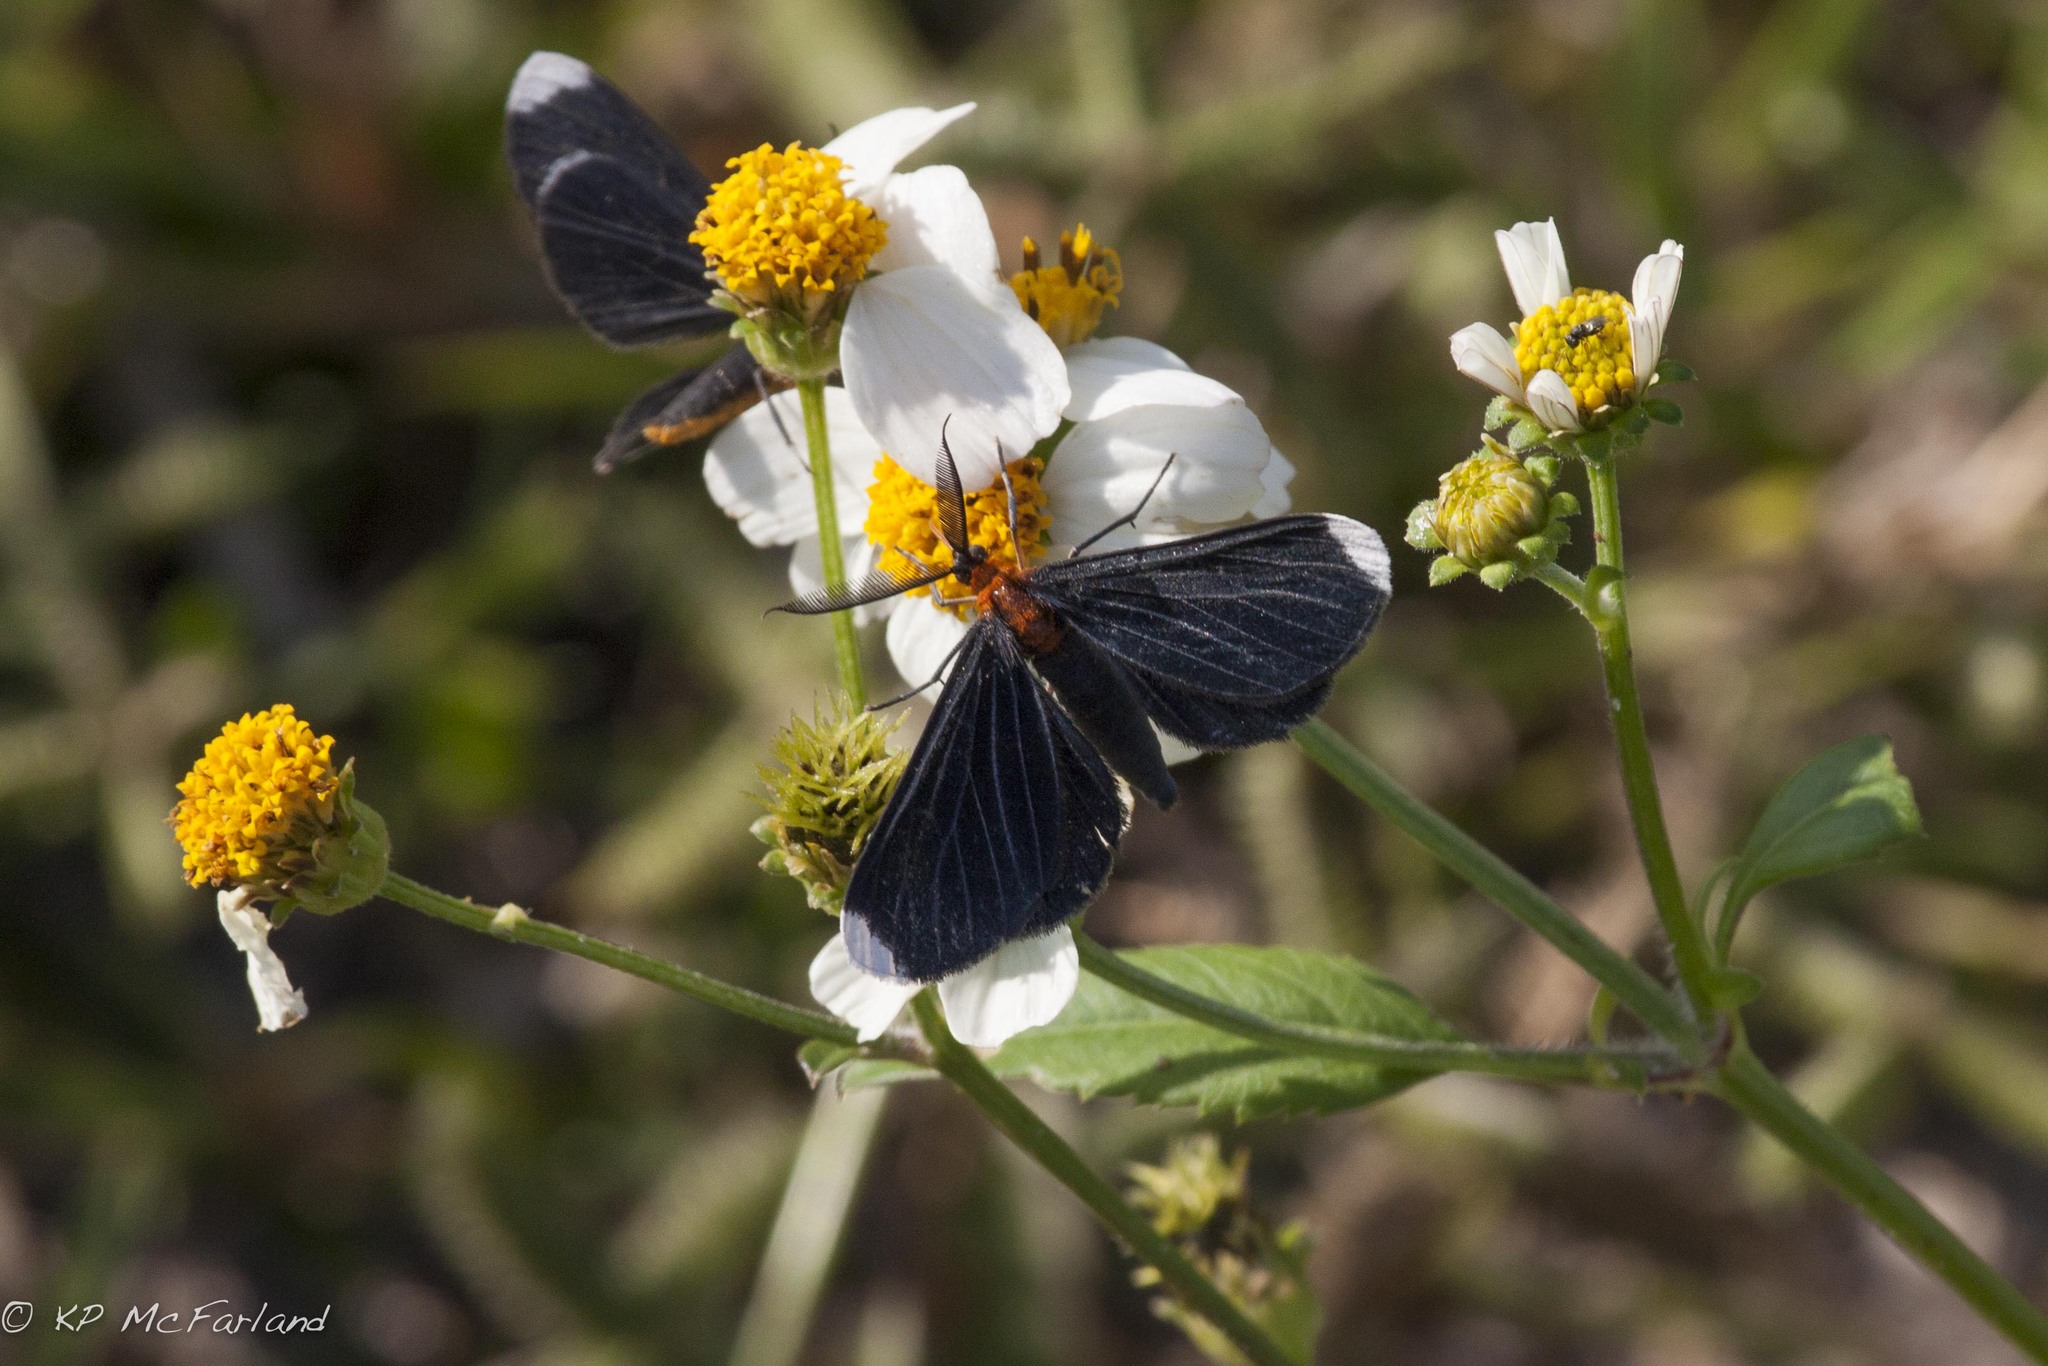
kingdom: Animalia
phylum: Arthropoda
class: Insecta
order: Lepidoptera
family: Geometridae
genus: Melanchroia
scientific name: Melanchroia chephise
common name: White-tipped black
